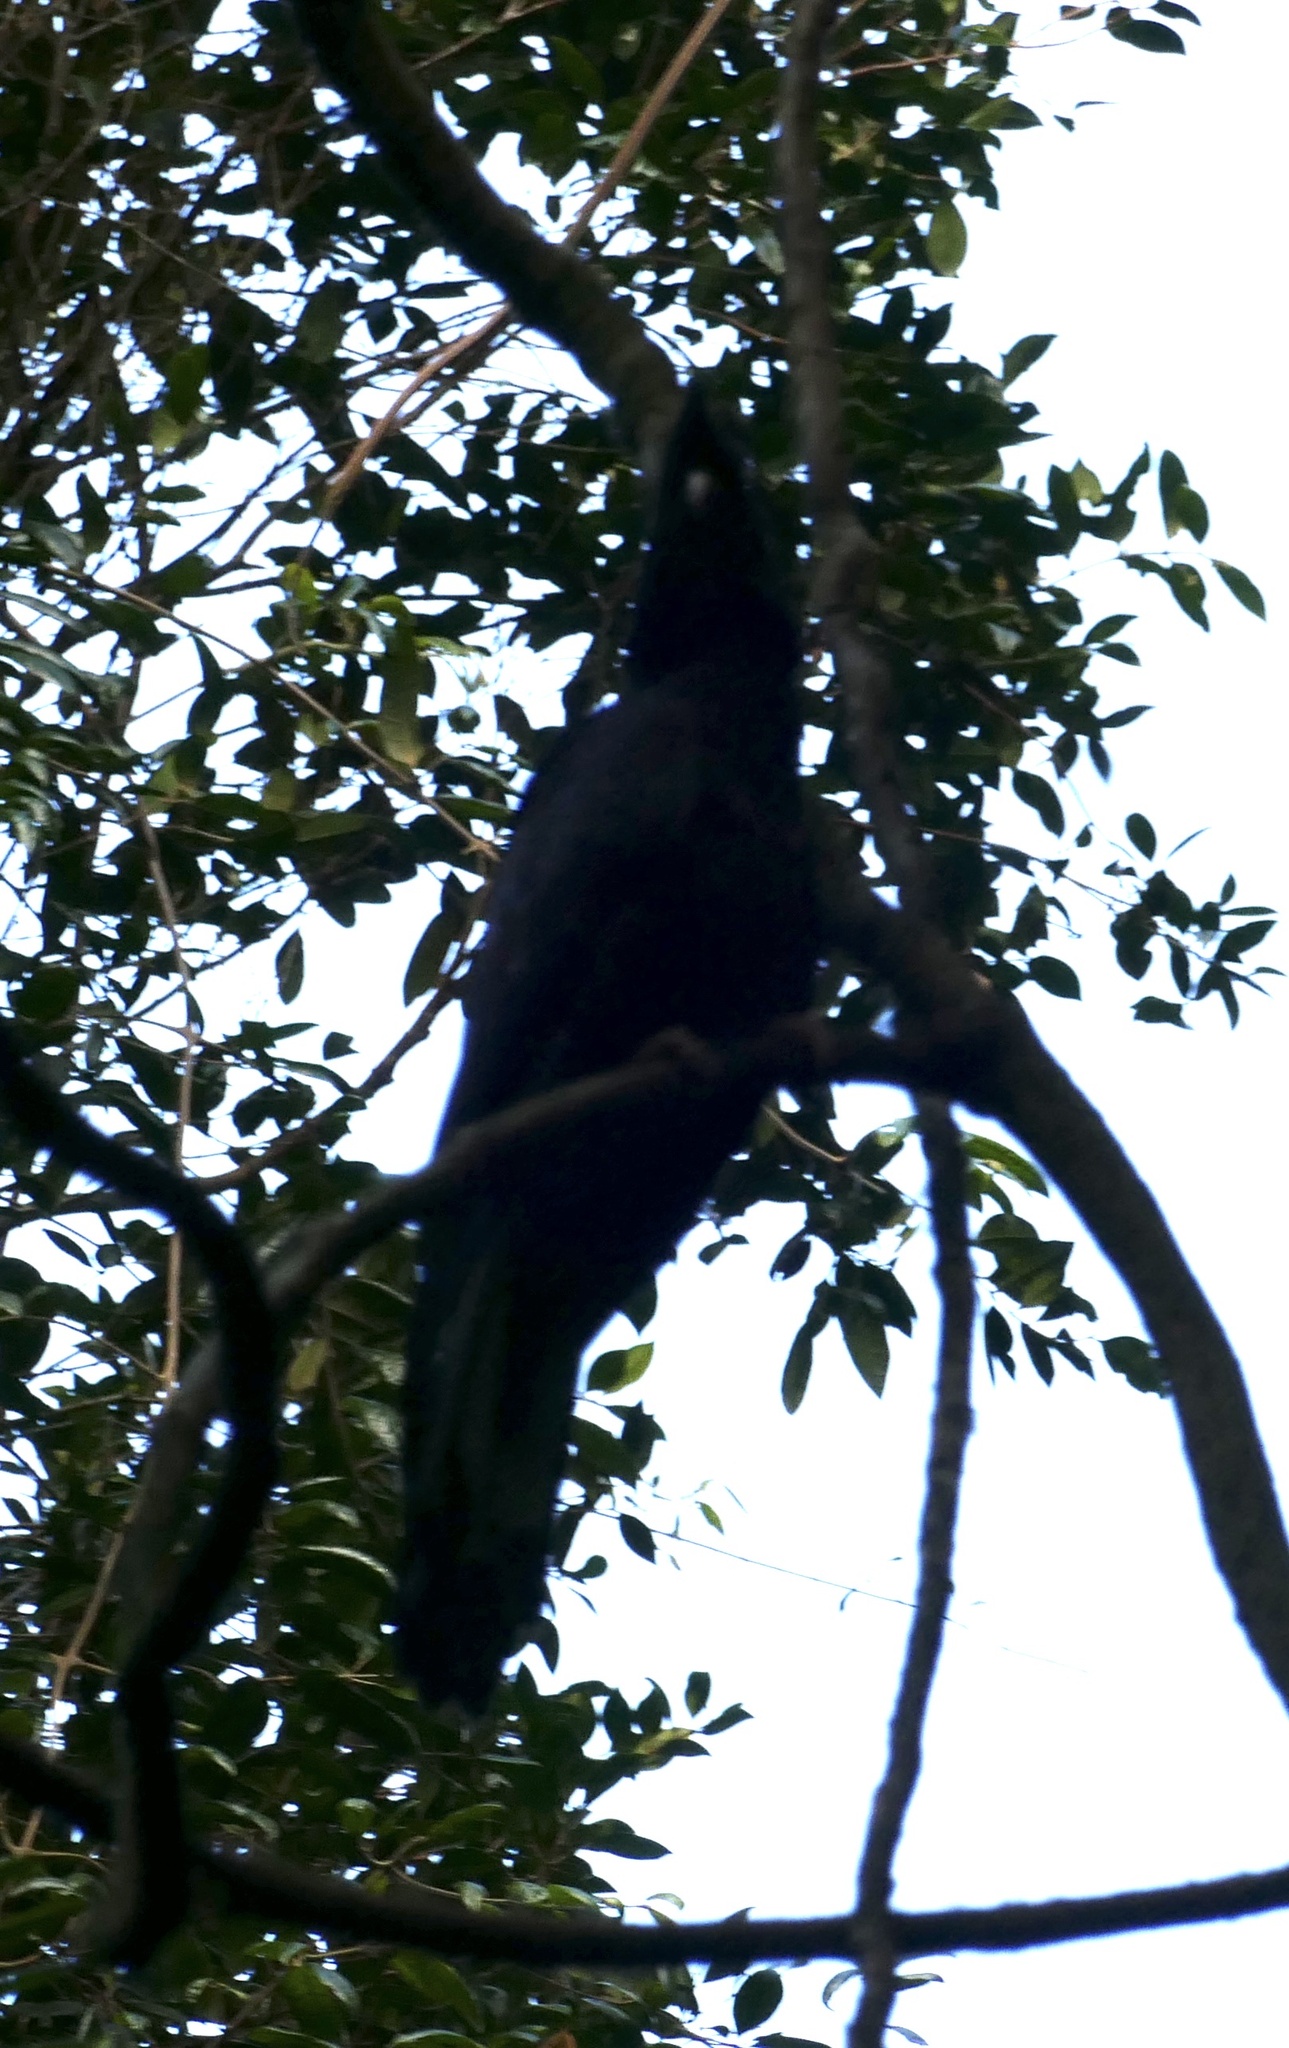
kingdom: Animalia
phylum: Chordata
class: Aves
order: Psittaciformes
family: Cacatuidae
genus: Zanda
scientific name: Zanda funerea
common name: Yellow-tailed black-cockatoo
